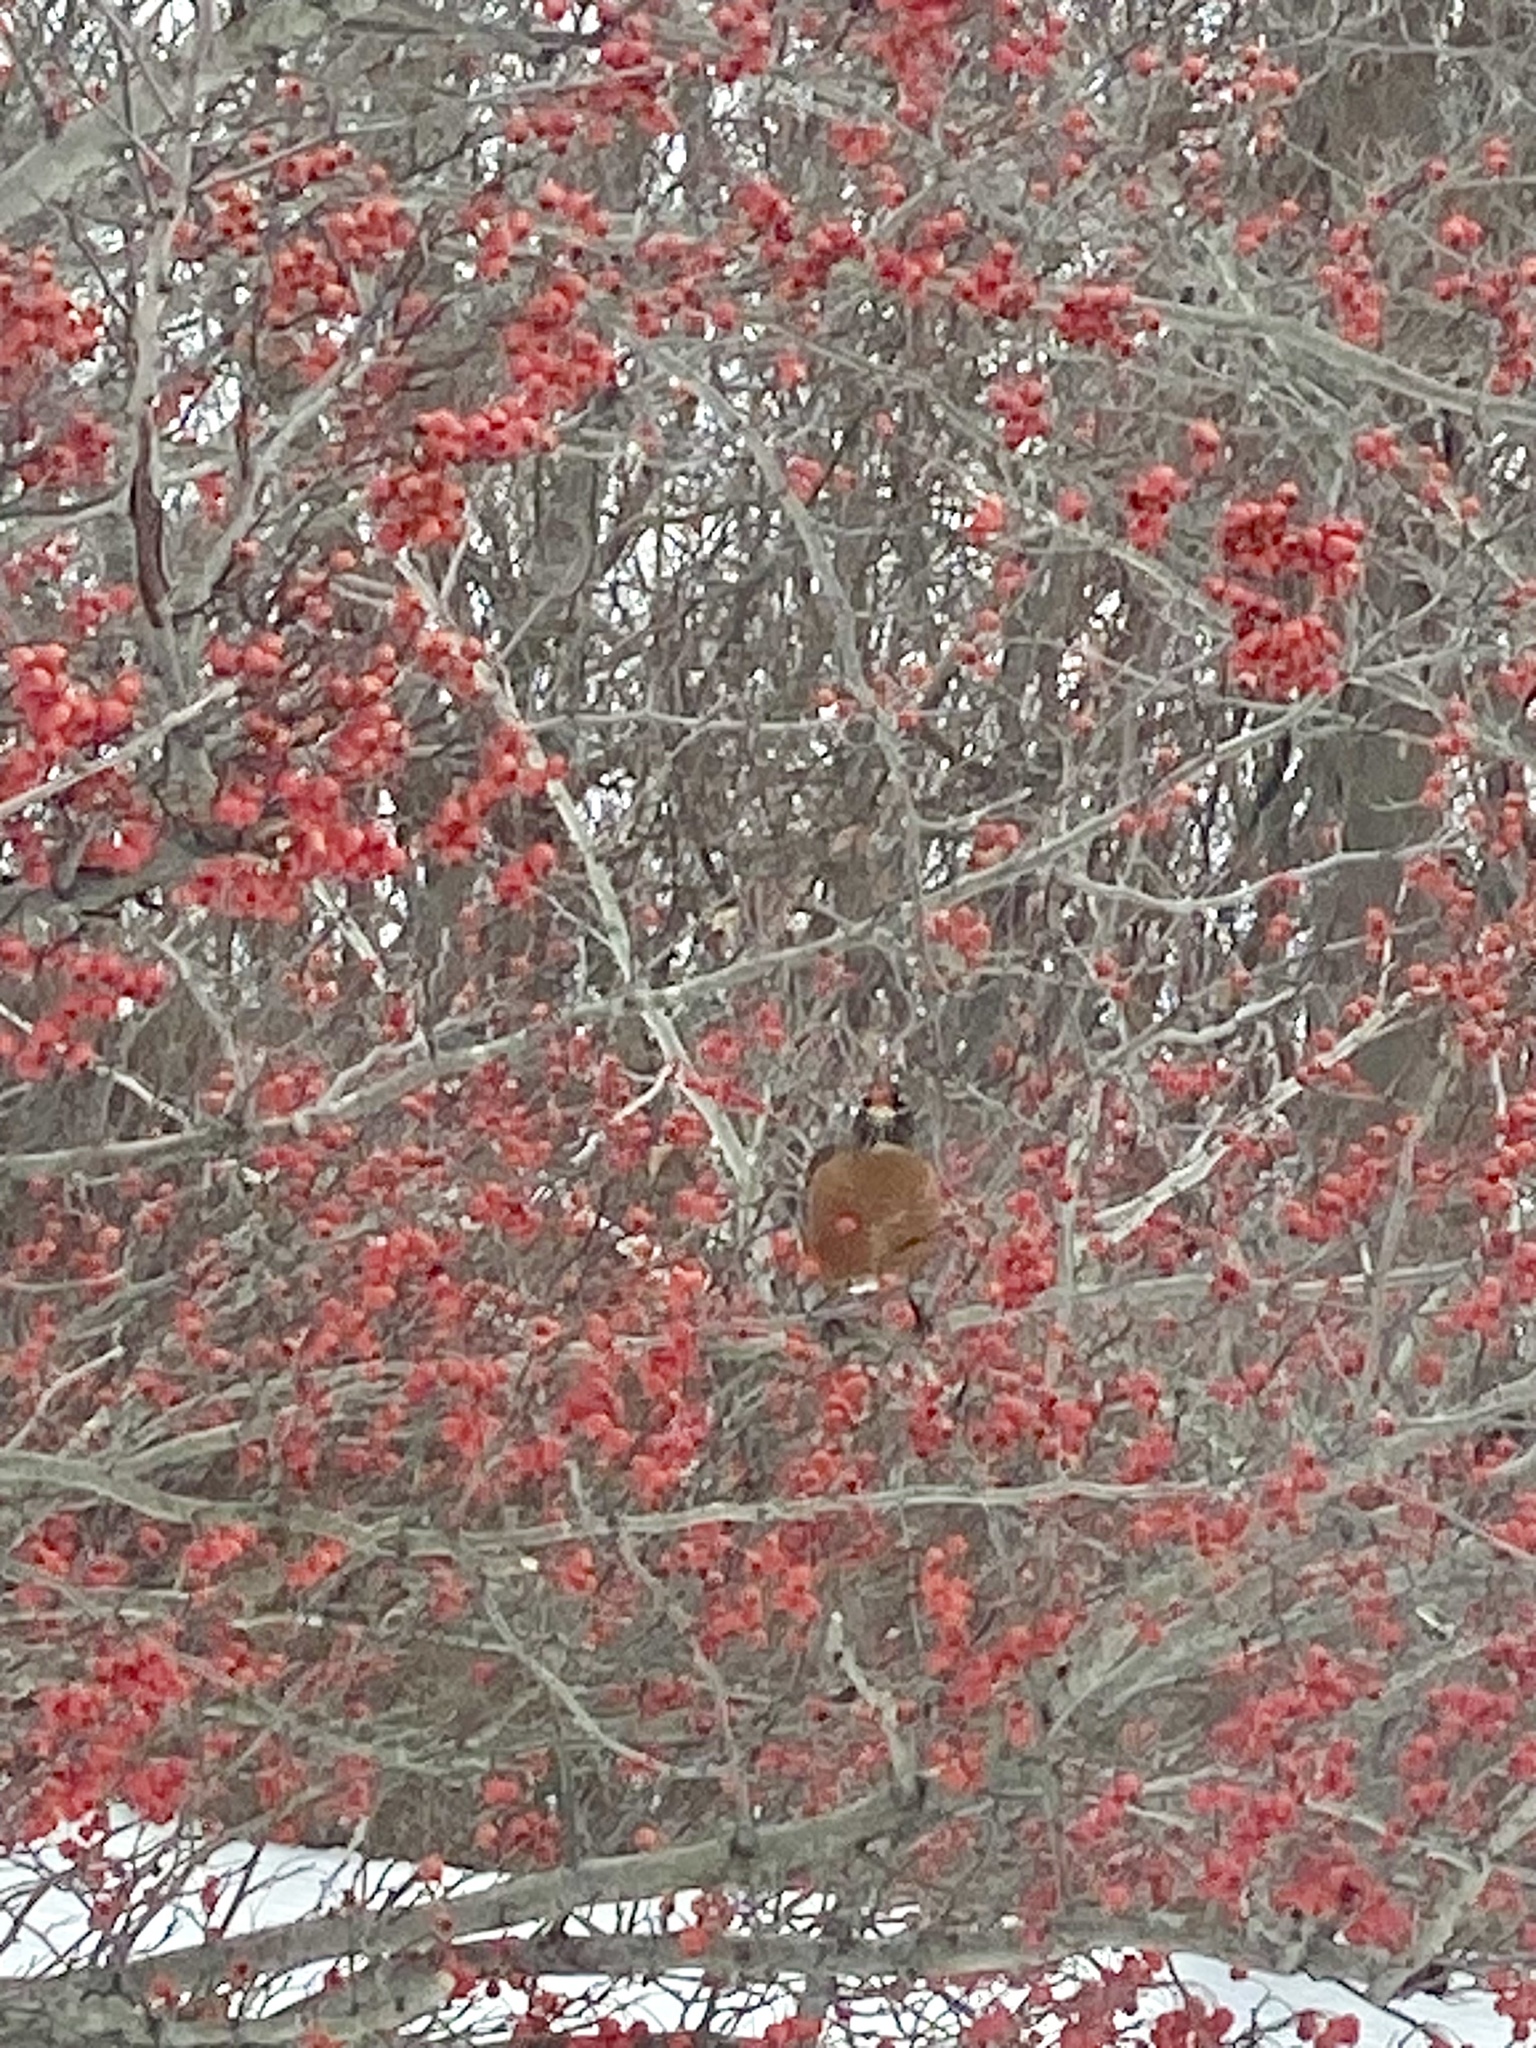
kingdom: Animalia
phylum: Chordata
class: Aves
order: Passeriformes
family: Turdidae
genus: Turdus
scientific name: Turdus migratorius
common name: American robin
